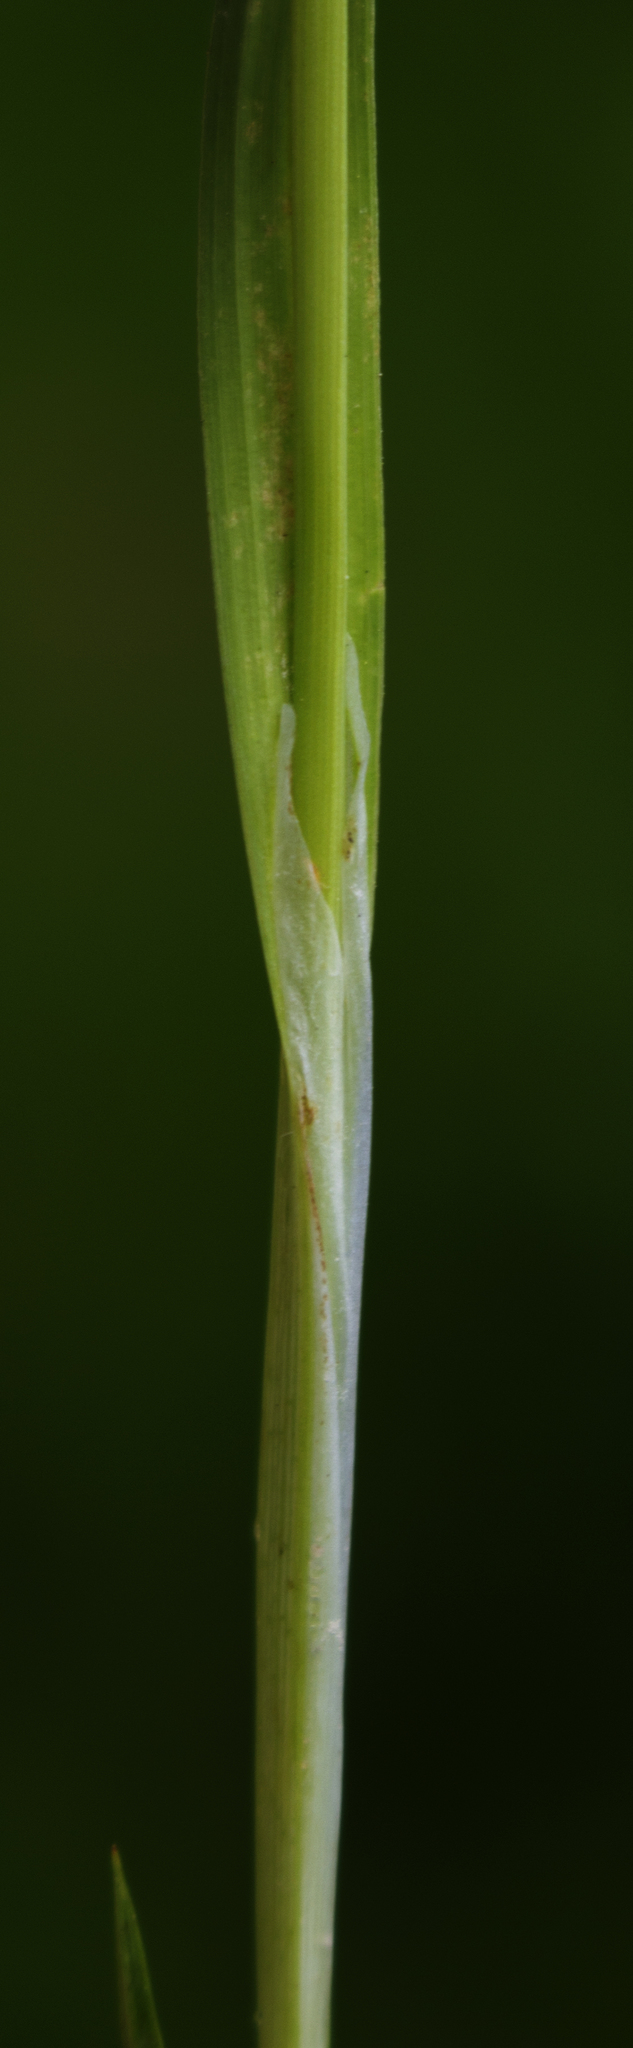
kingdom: Plantae
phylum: Tracheophyta
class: Liliopsida
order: Poales
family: Cyperaceae
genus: Carex
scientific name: Carex granularis
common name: Granular sedge
